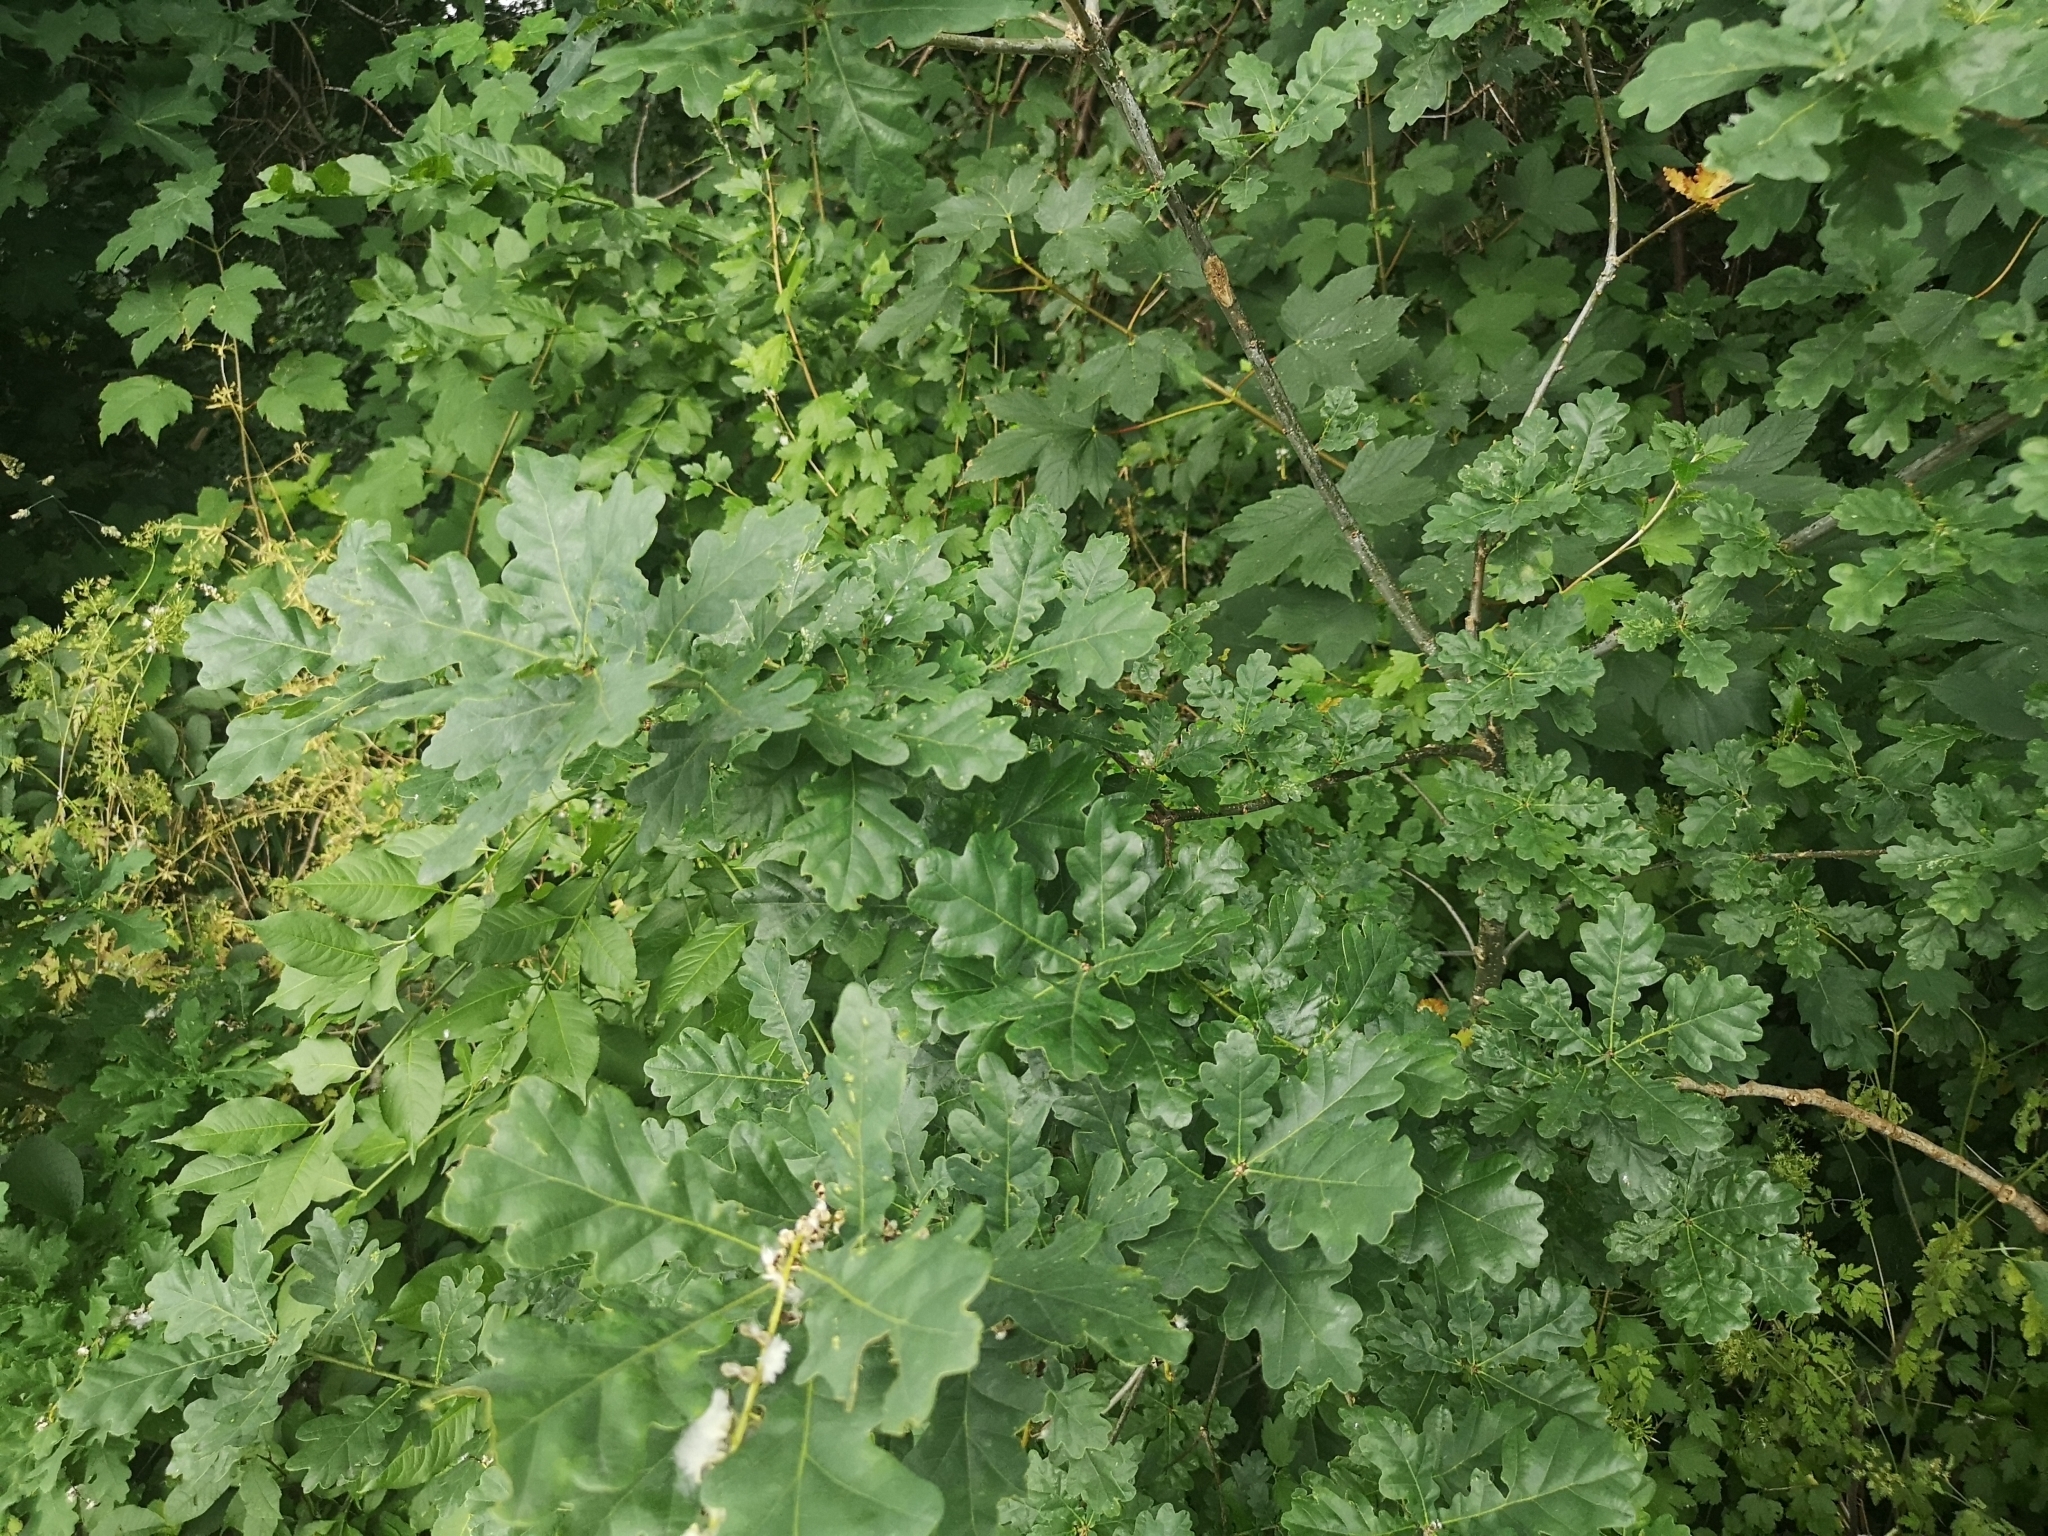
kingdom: Plantae
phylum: Tracheophyta
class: Magnoliopsida
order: Fagales
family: Fagaceae
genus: Quercus
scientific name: Quercus robur
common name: Pedunculate oak
